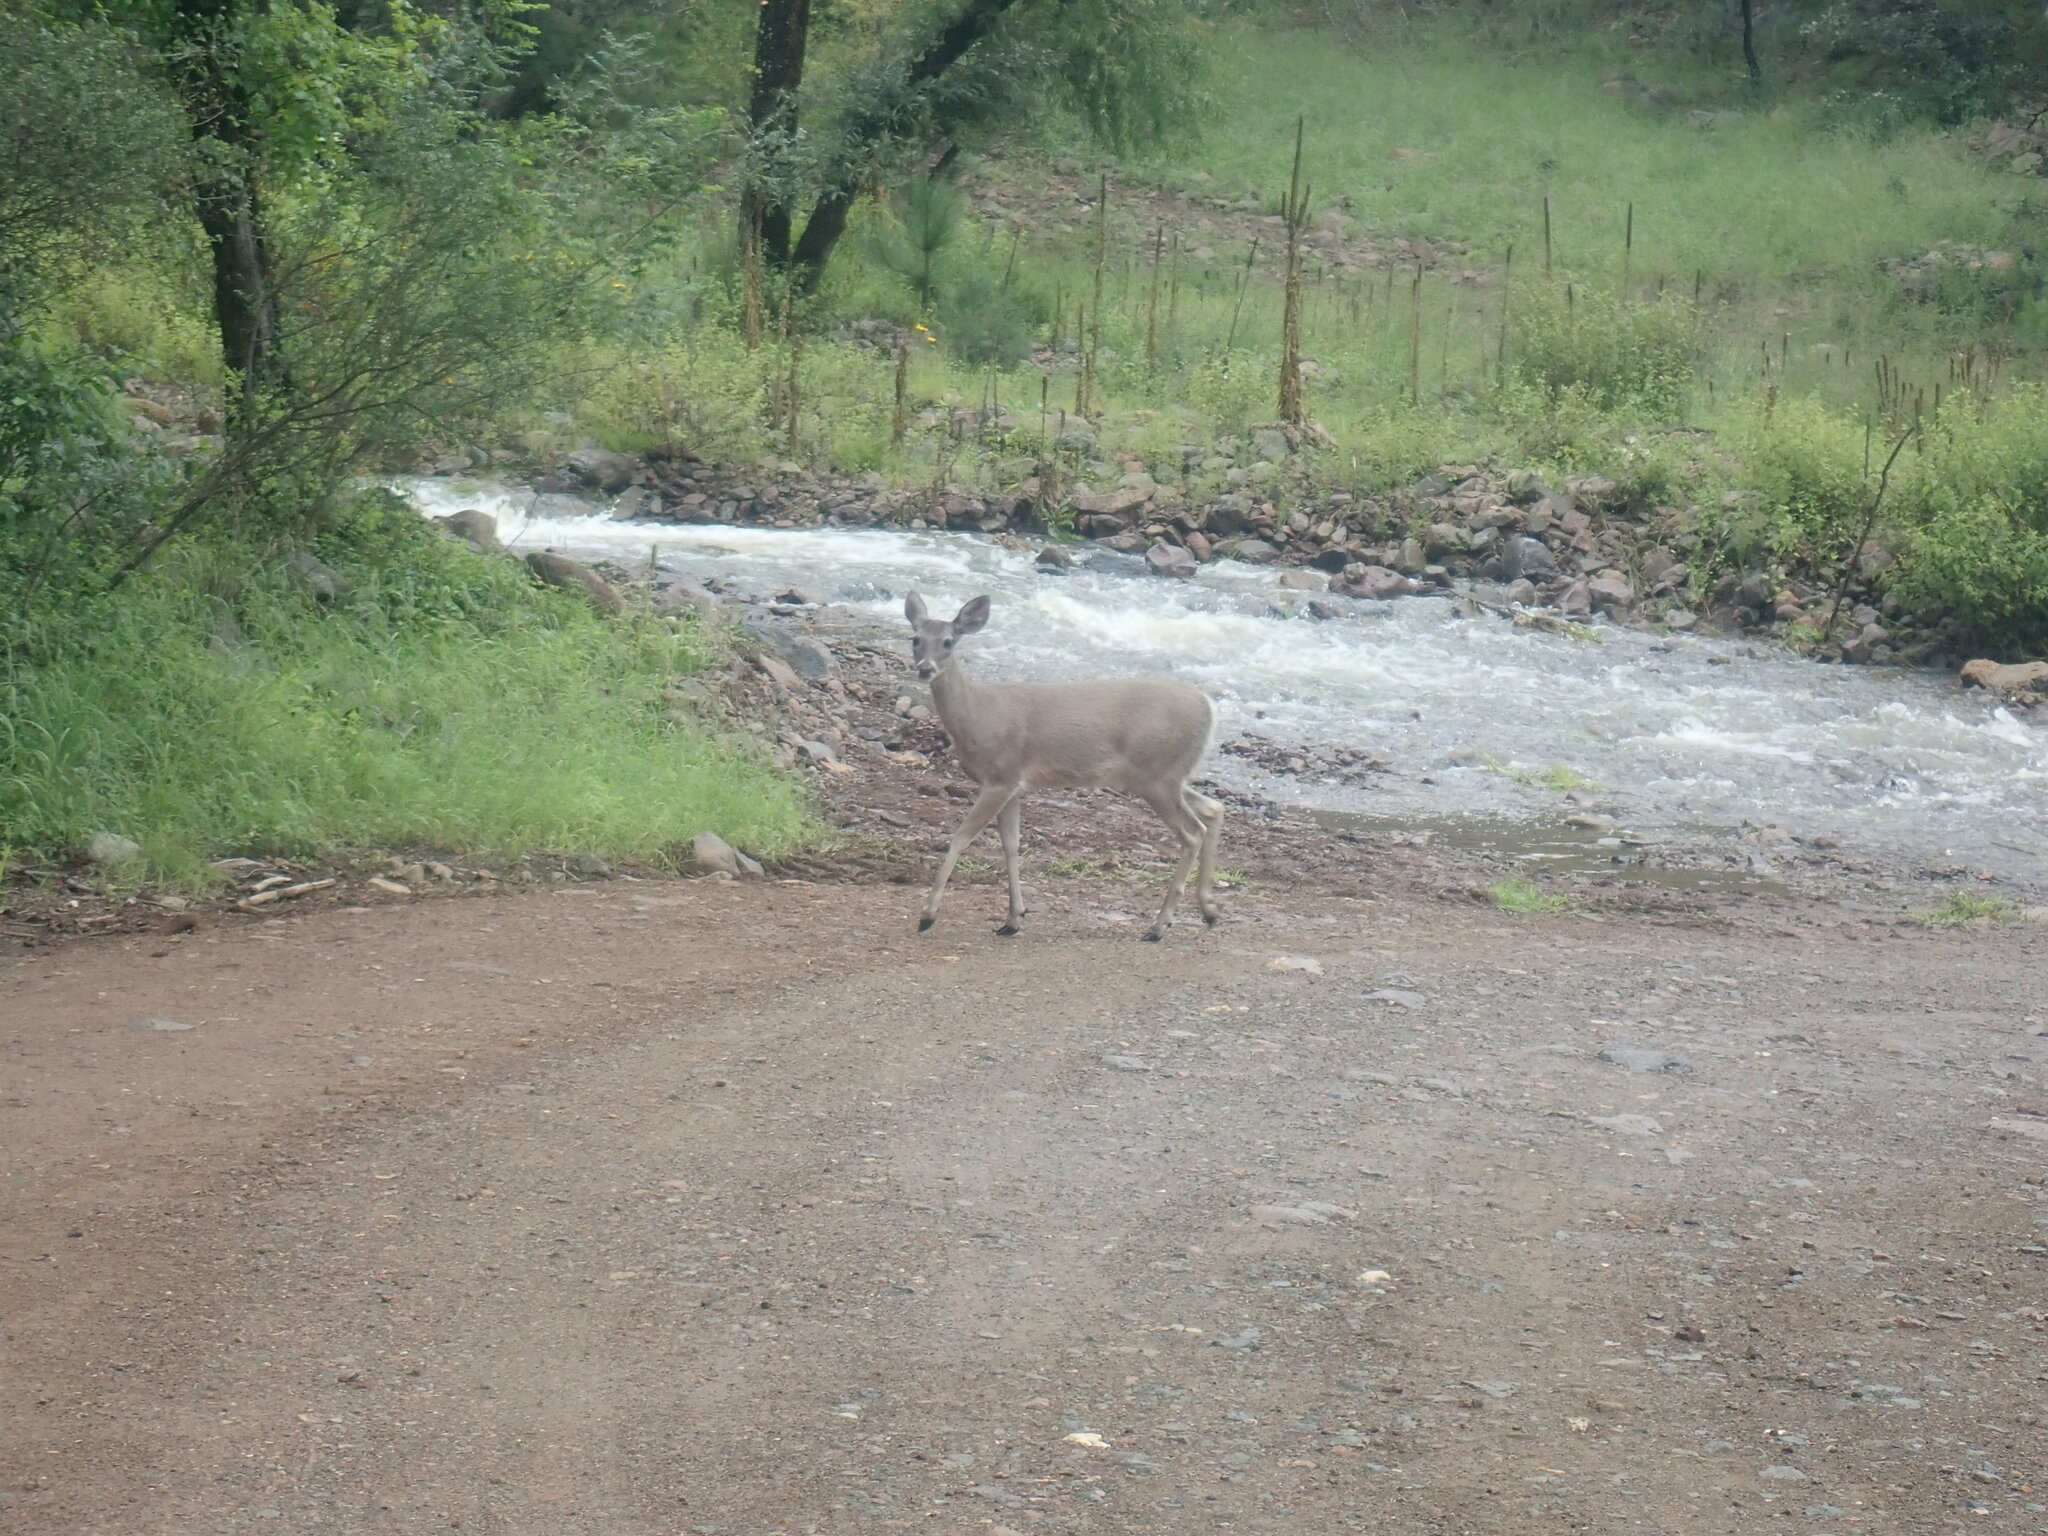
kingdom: Animalia
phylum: Chordata
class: Mammalia
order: Artiodactyla
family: Cervidae
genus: Odocoileus
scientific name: Odocoileus virginianus
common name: White-tailed deer
